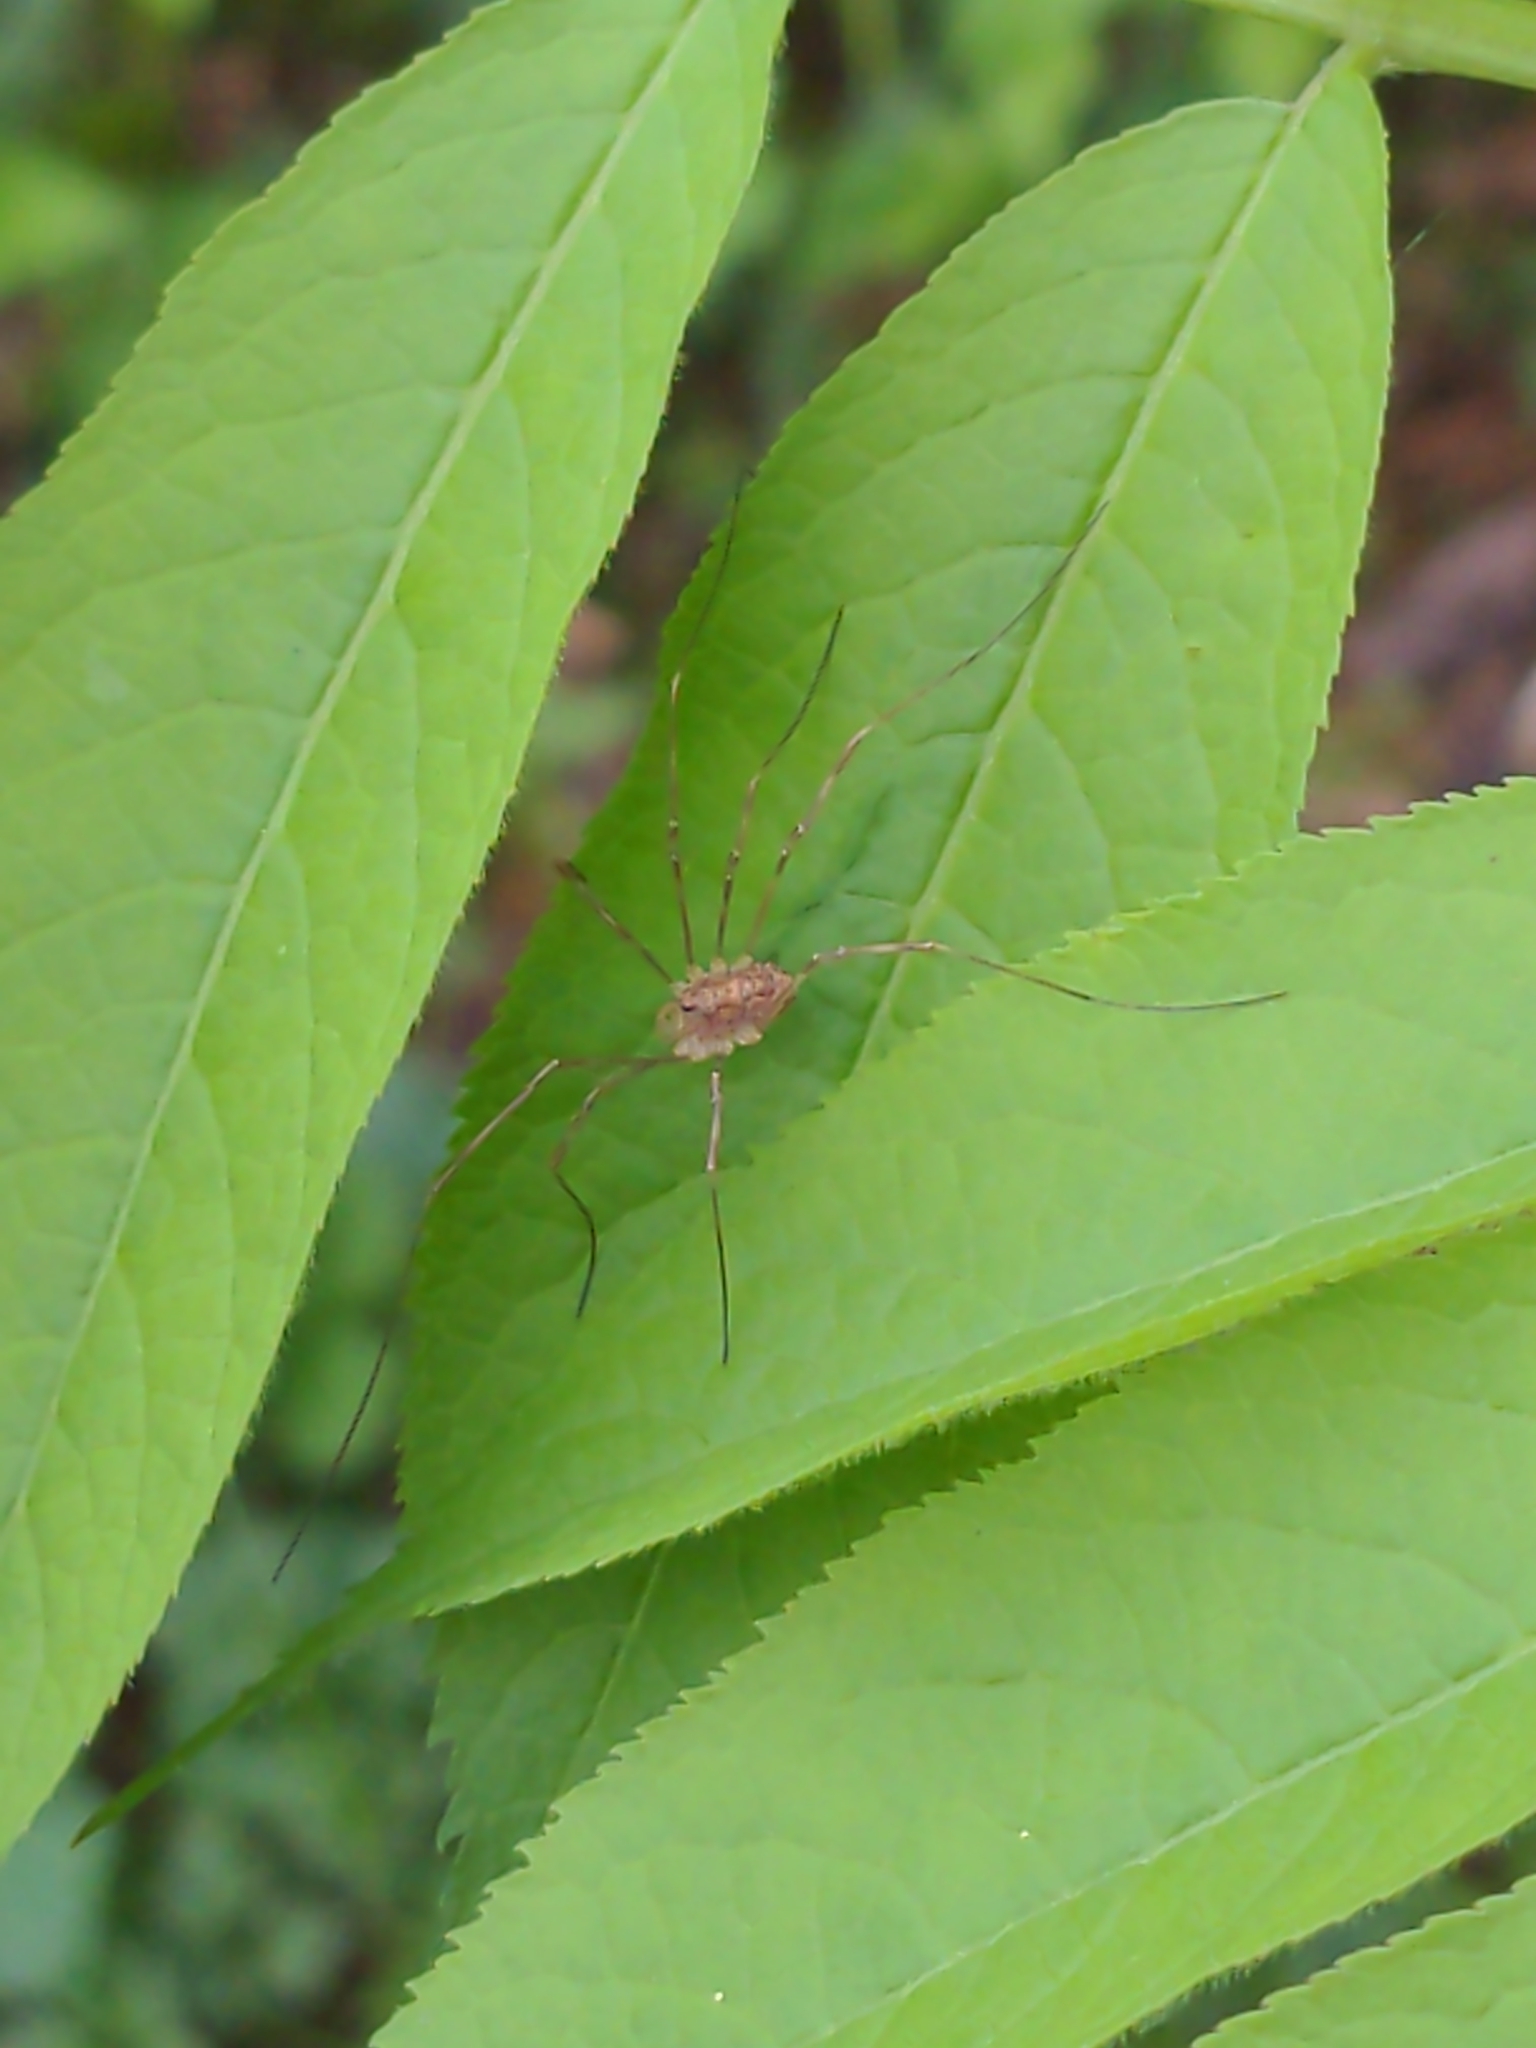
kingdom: Animalia
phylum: Arthropoda
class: Arachnida
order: Opiliones
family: Phalangiidae
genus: Rilaena
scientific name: Rilaena triangularis
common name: Spring harvestman
